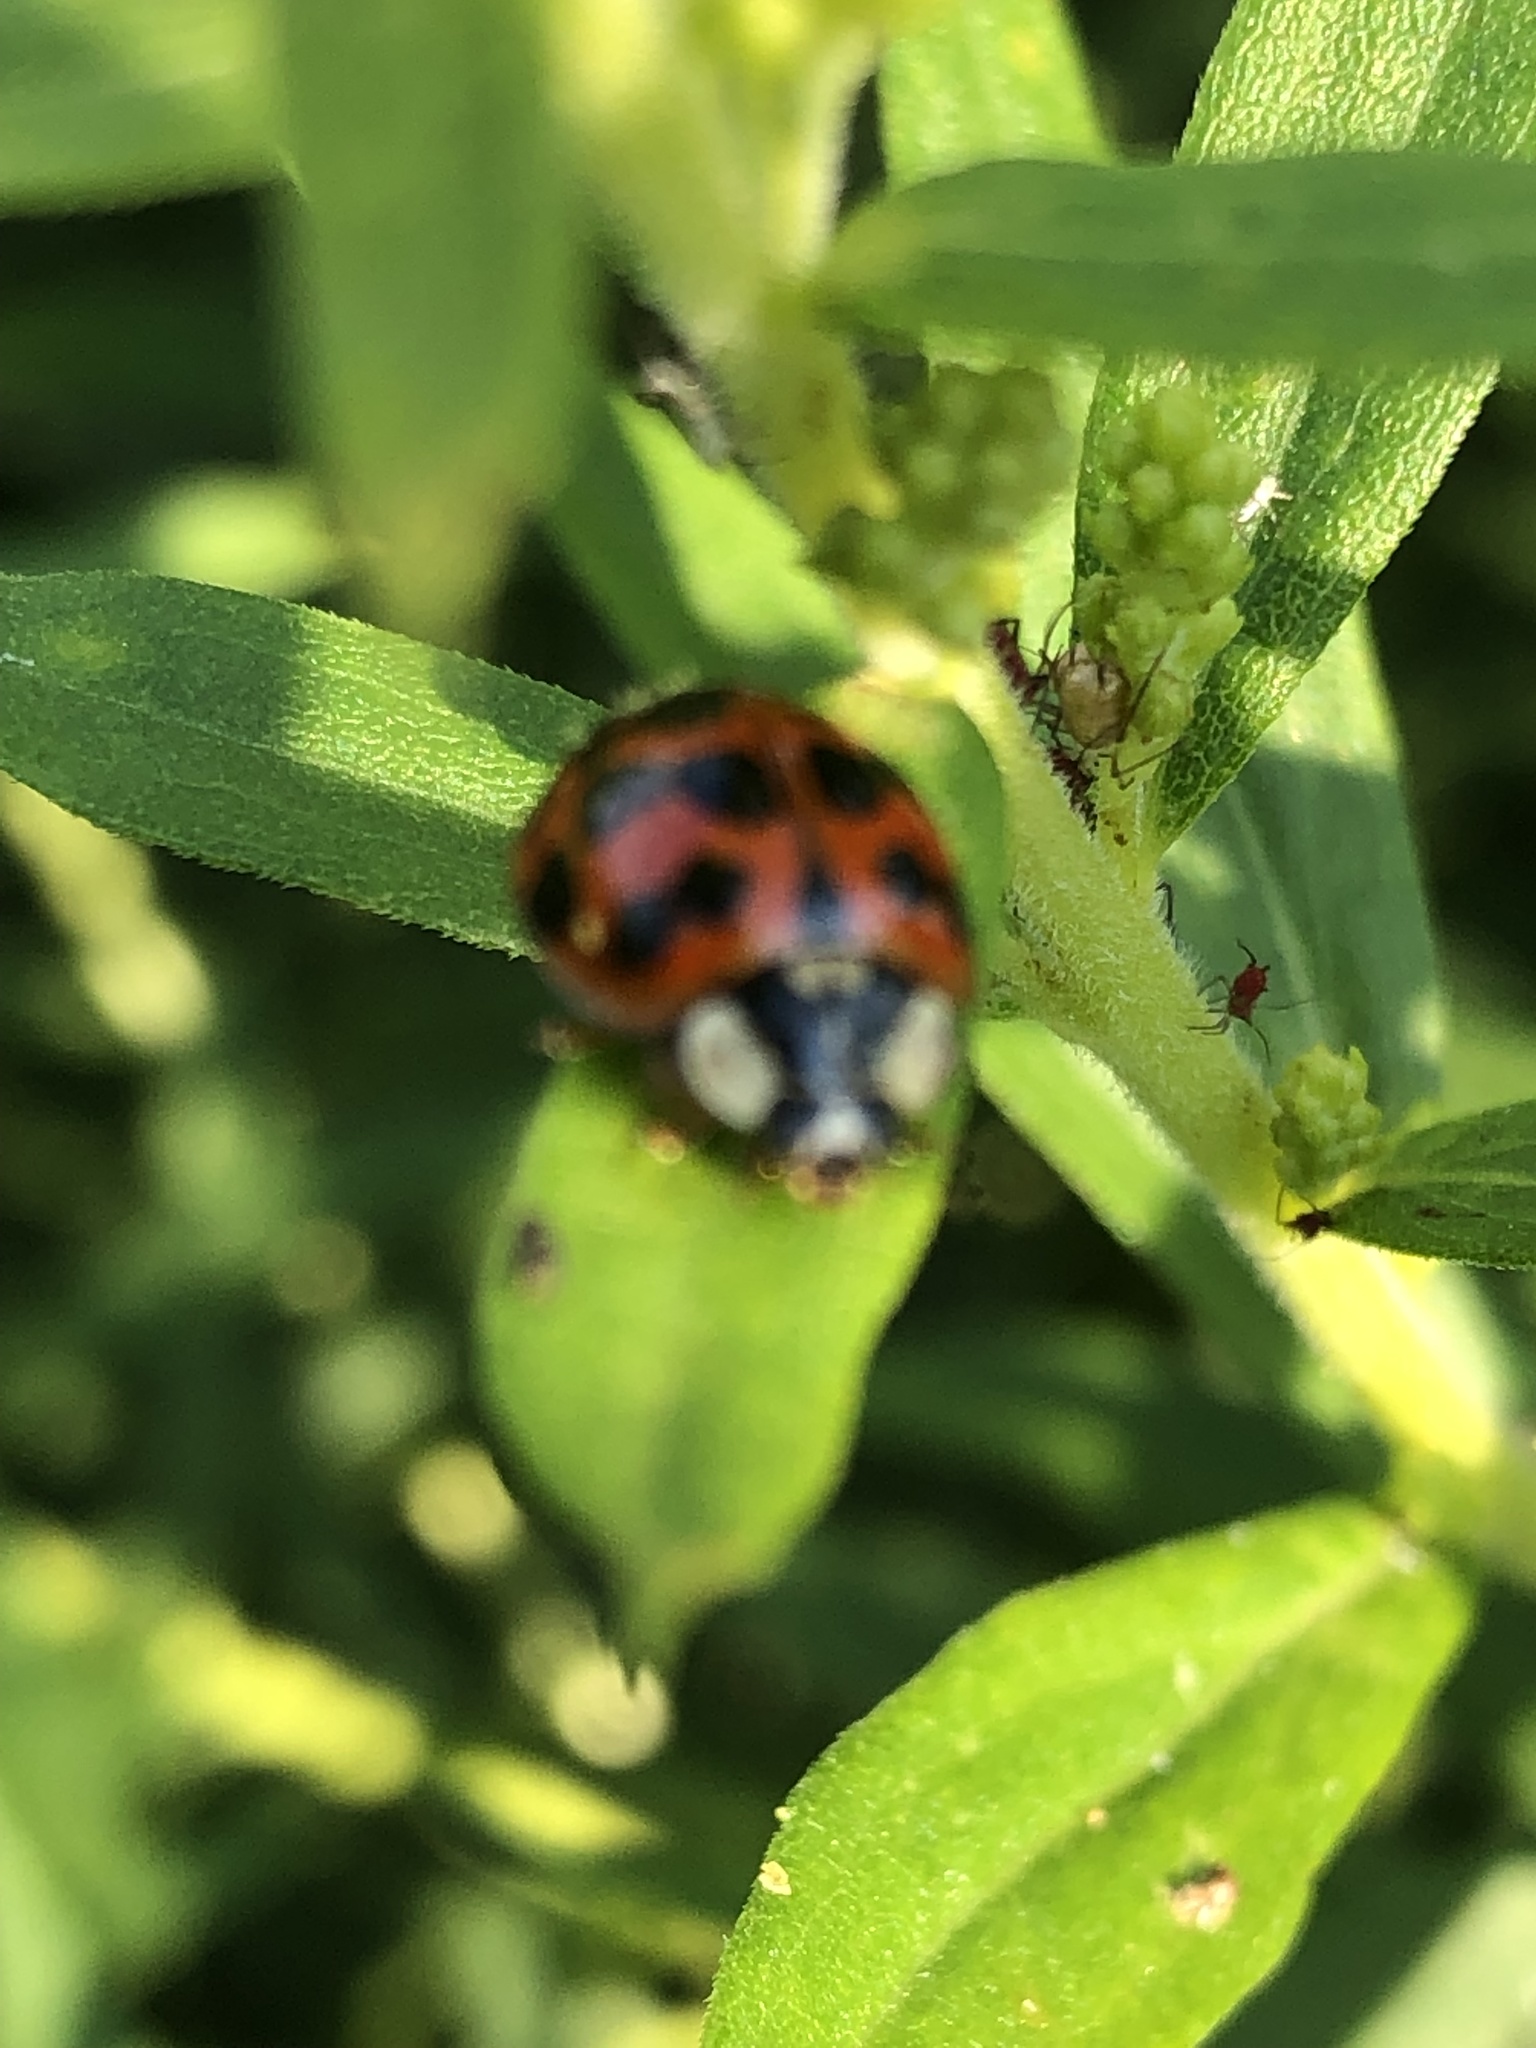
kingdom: Animalia
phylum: Arthropoda
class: Insecta
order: Coleoptera
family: Coccinellidae
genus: Harmonia
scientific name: Harmonia axyridis
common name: Harlequin ladybird
